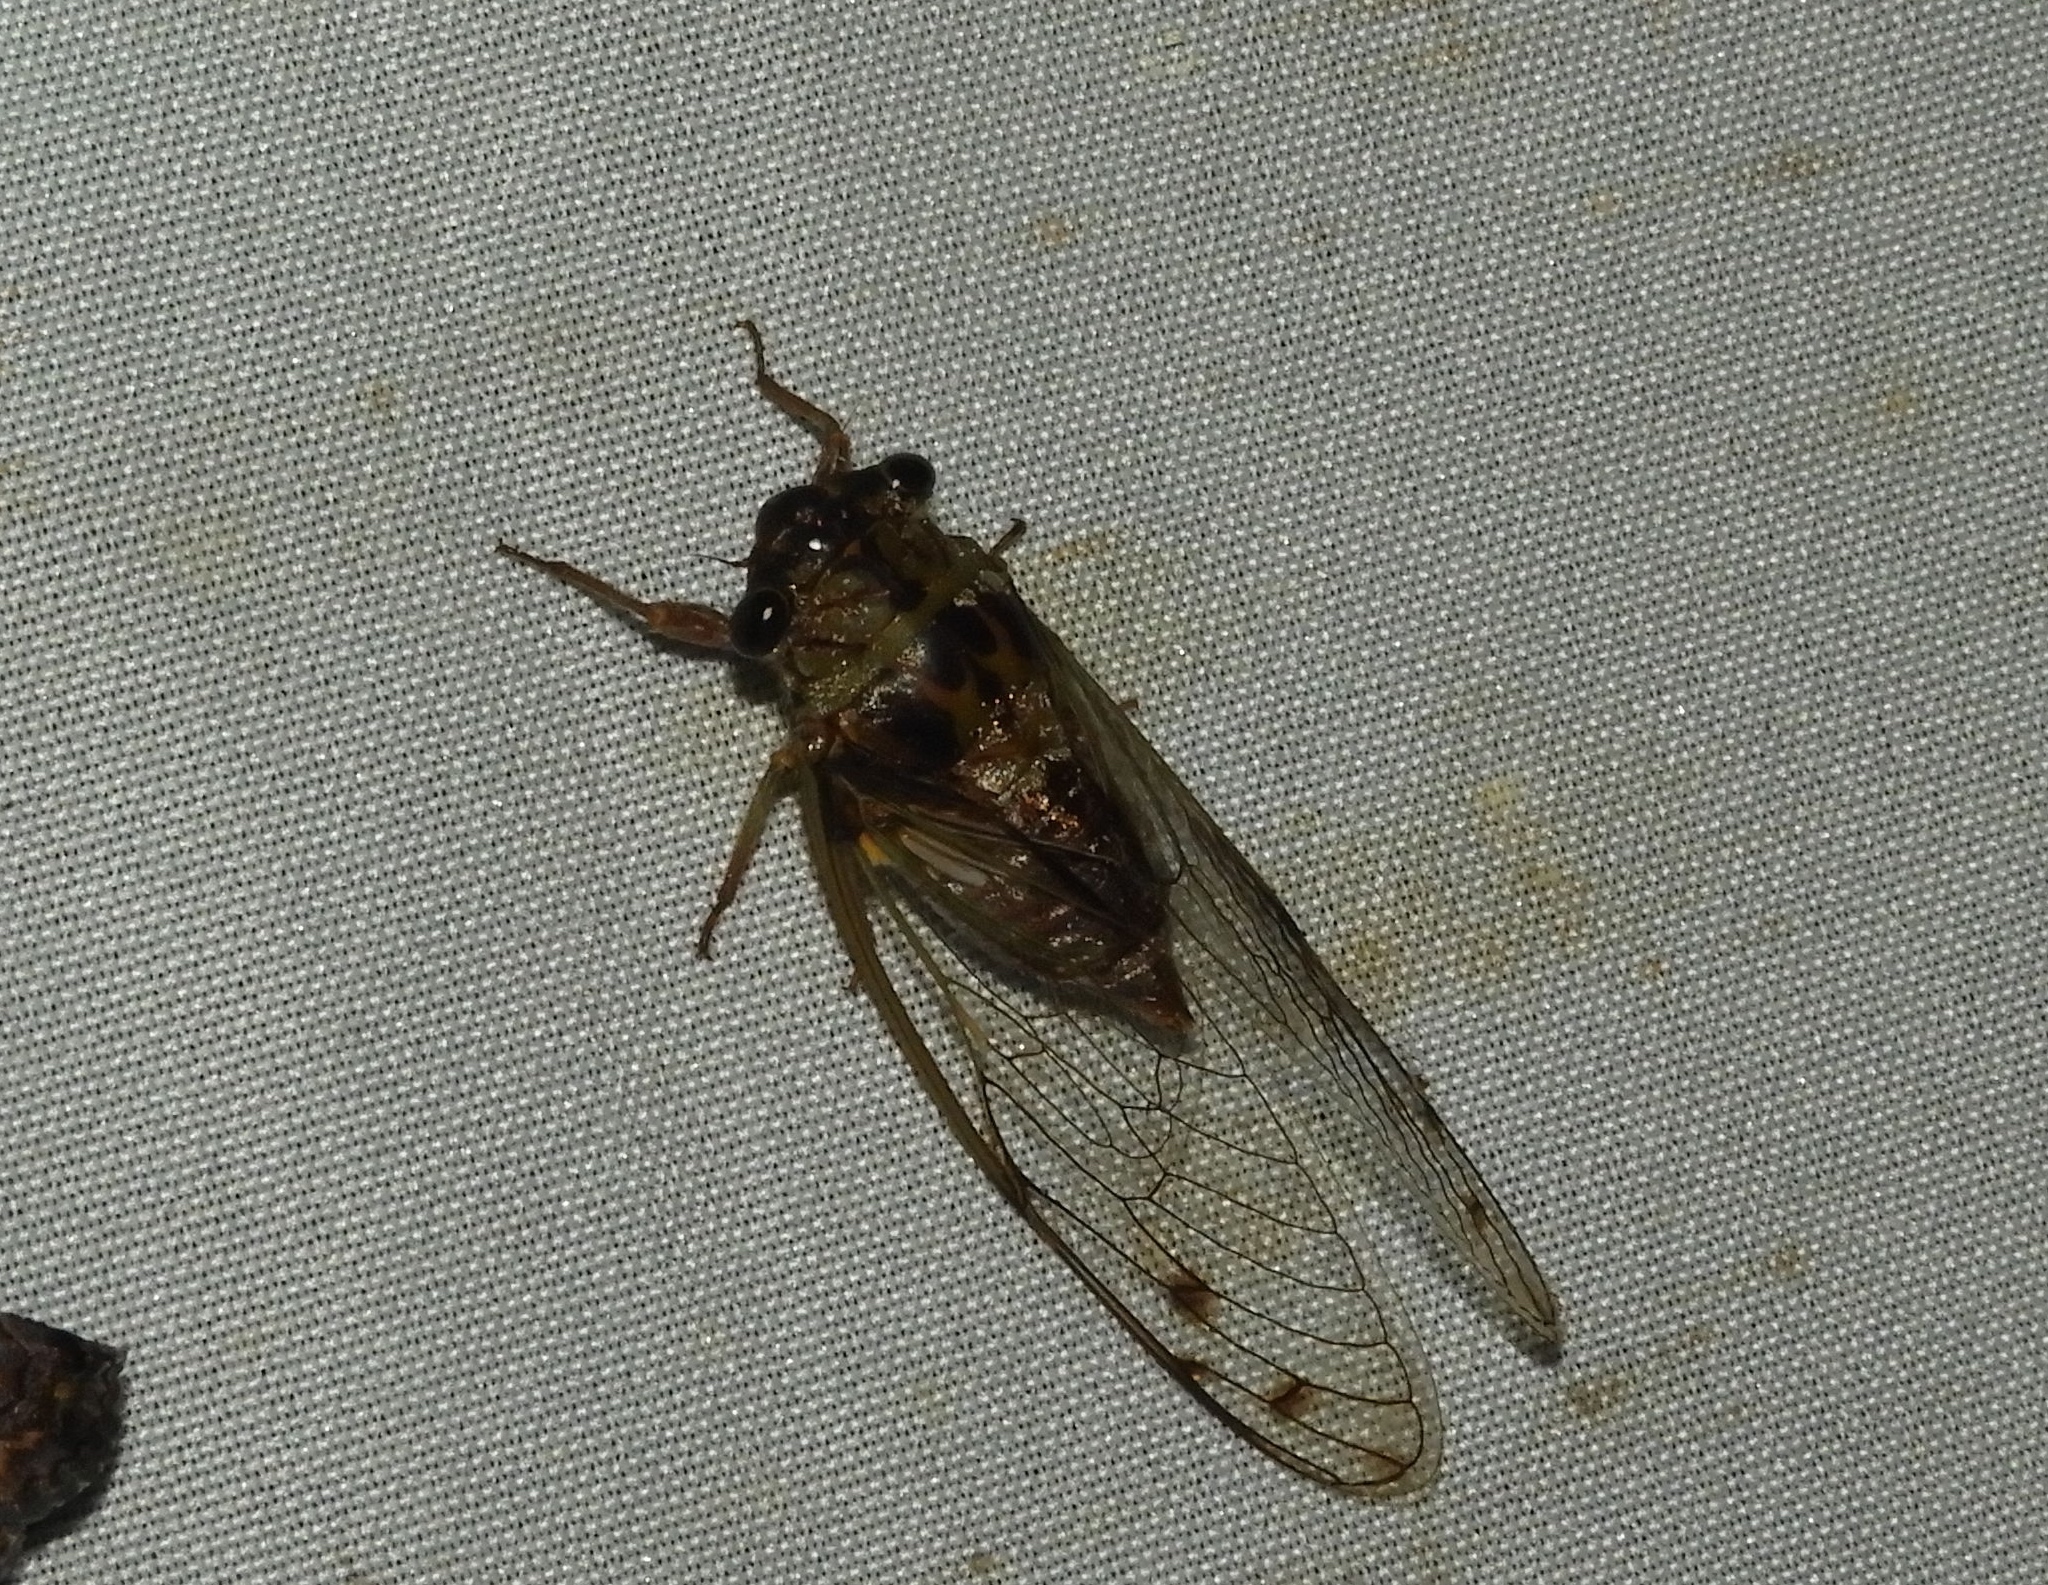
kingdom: Animalia
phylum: Arthropoda
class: Insecta
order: Hemiptera
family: Cicadidae
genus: Diceroprocta
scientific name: Diceroprocta tepicana
